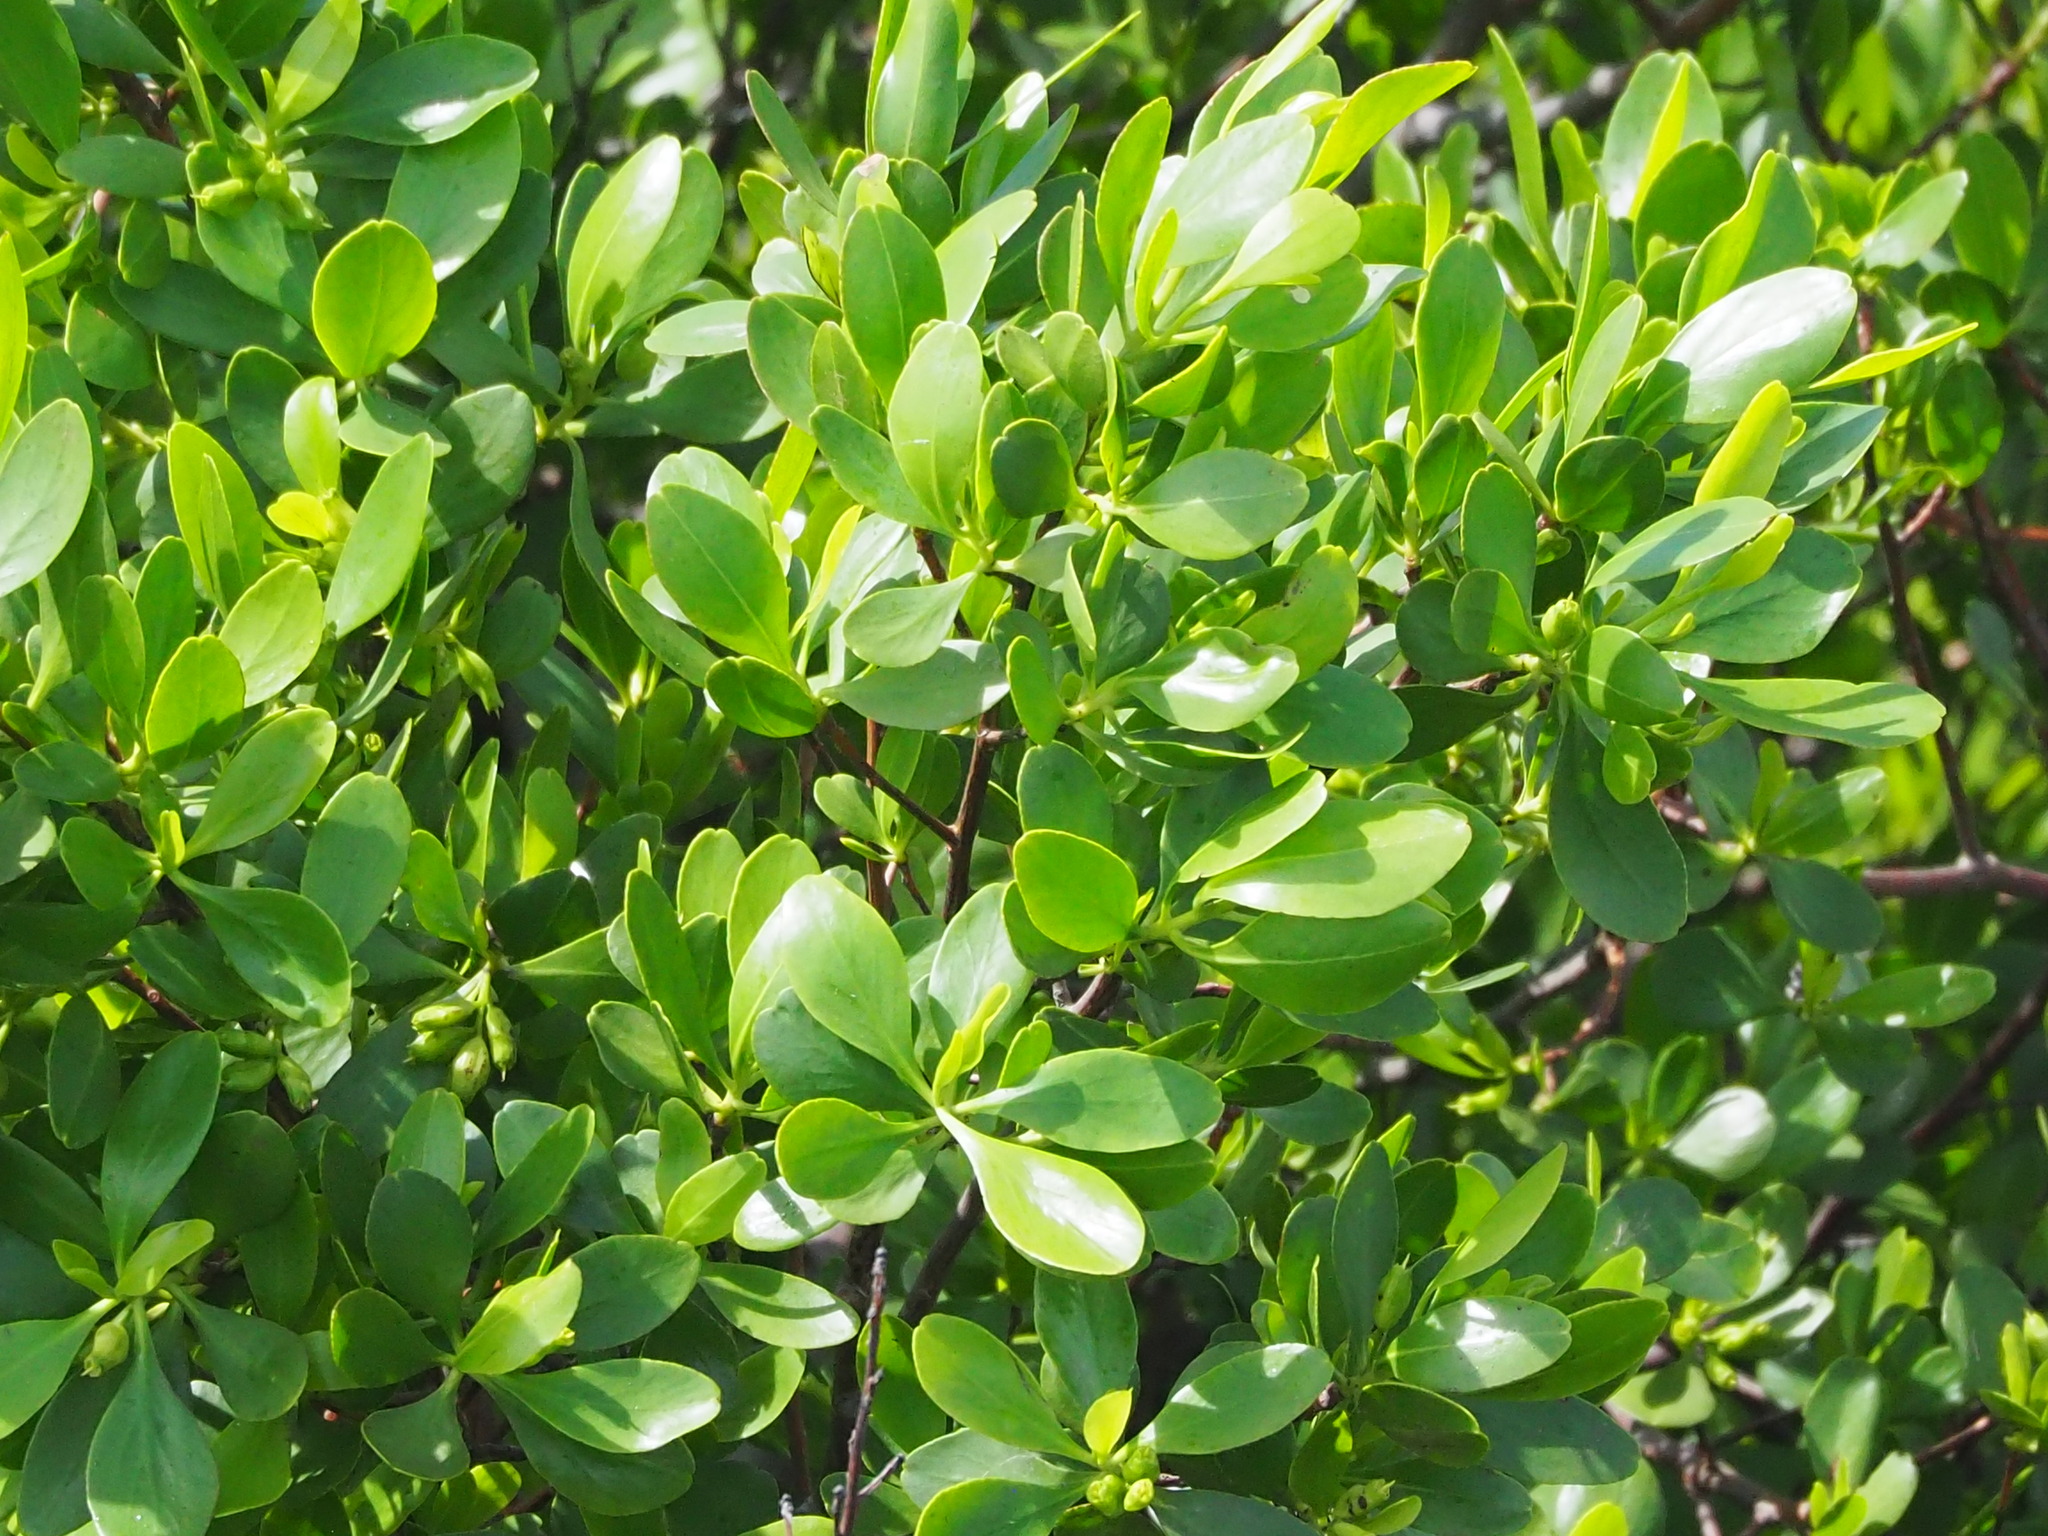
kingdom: Plantae
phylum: Tracheophyta
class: Magnoliopsida
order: Myrtales
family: Combretaceae
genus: Lumnitzera
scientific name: Lumnitzera racemosa
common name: White-flowered black mangrove
